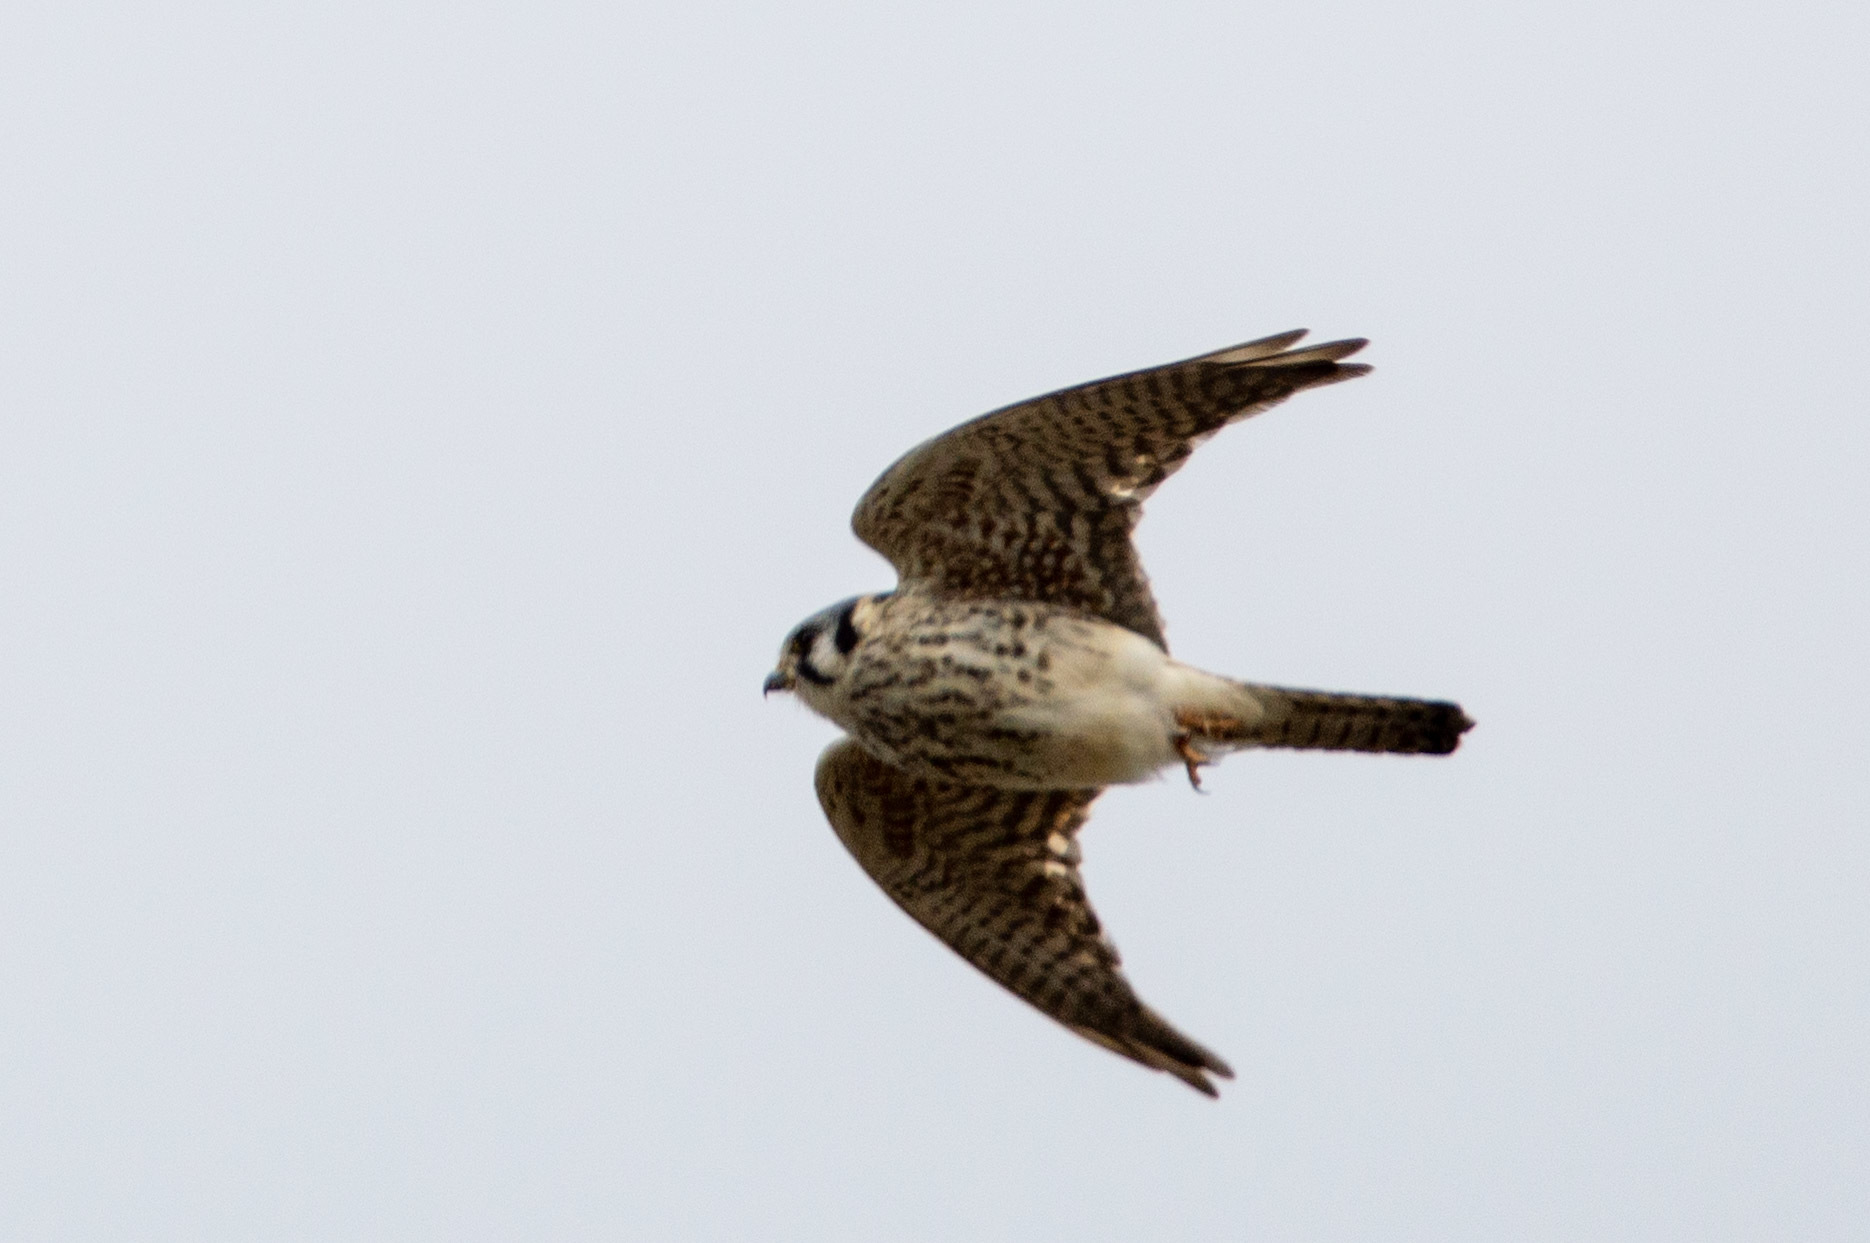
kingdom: Animalia
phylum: Chordata
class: Aves
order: Falconiformes
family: Falconidae
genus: Falco
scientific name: Falco sparverius
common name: American kestrel
